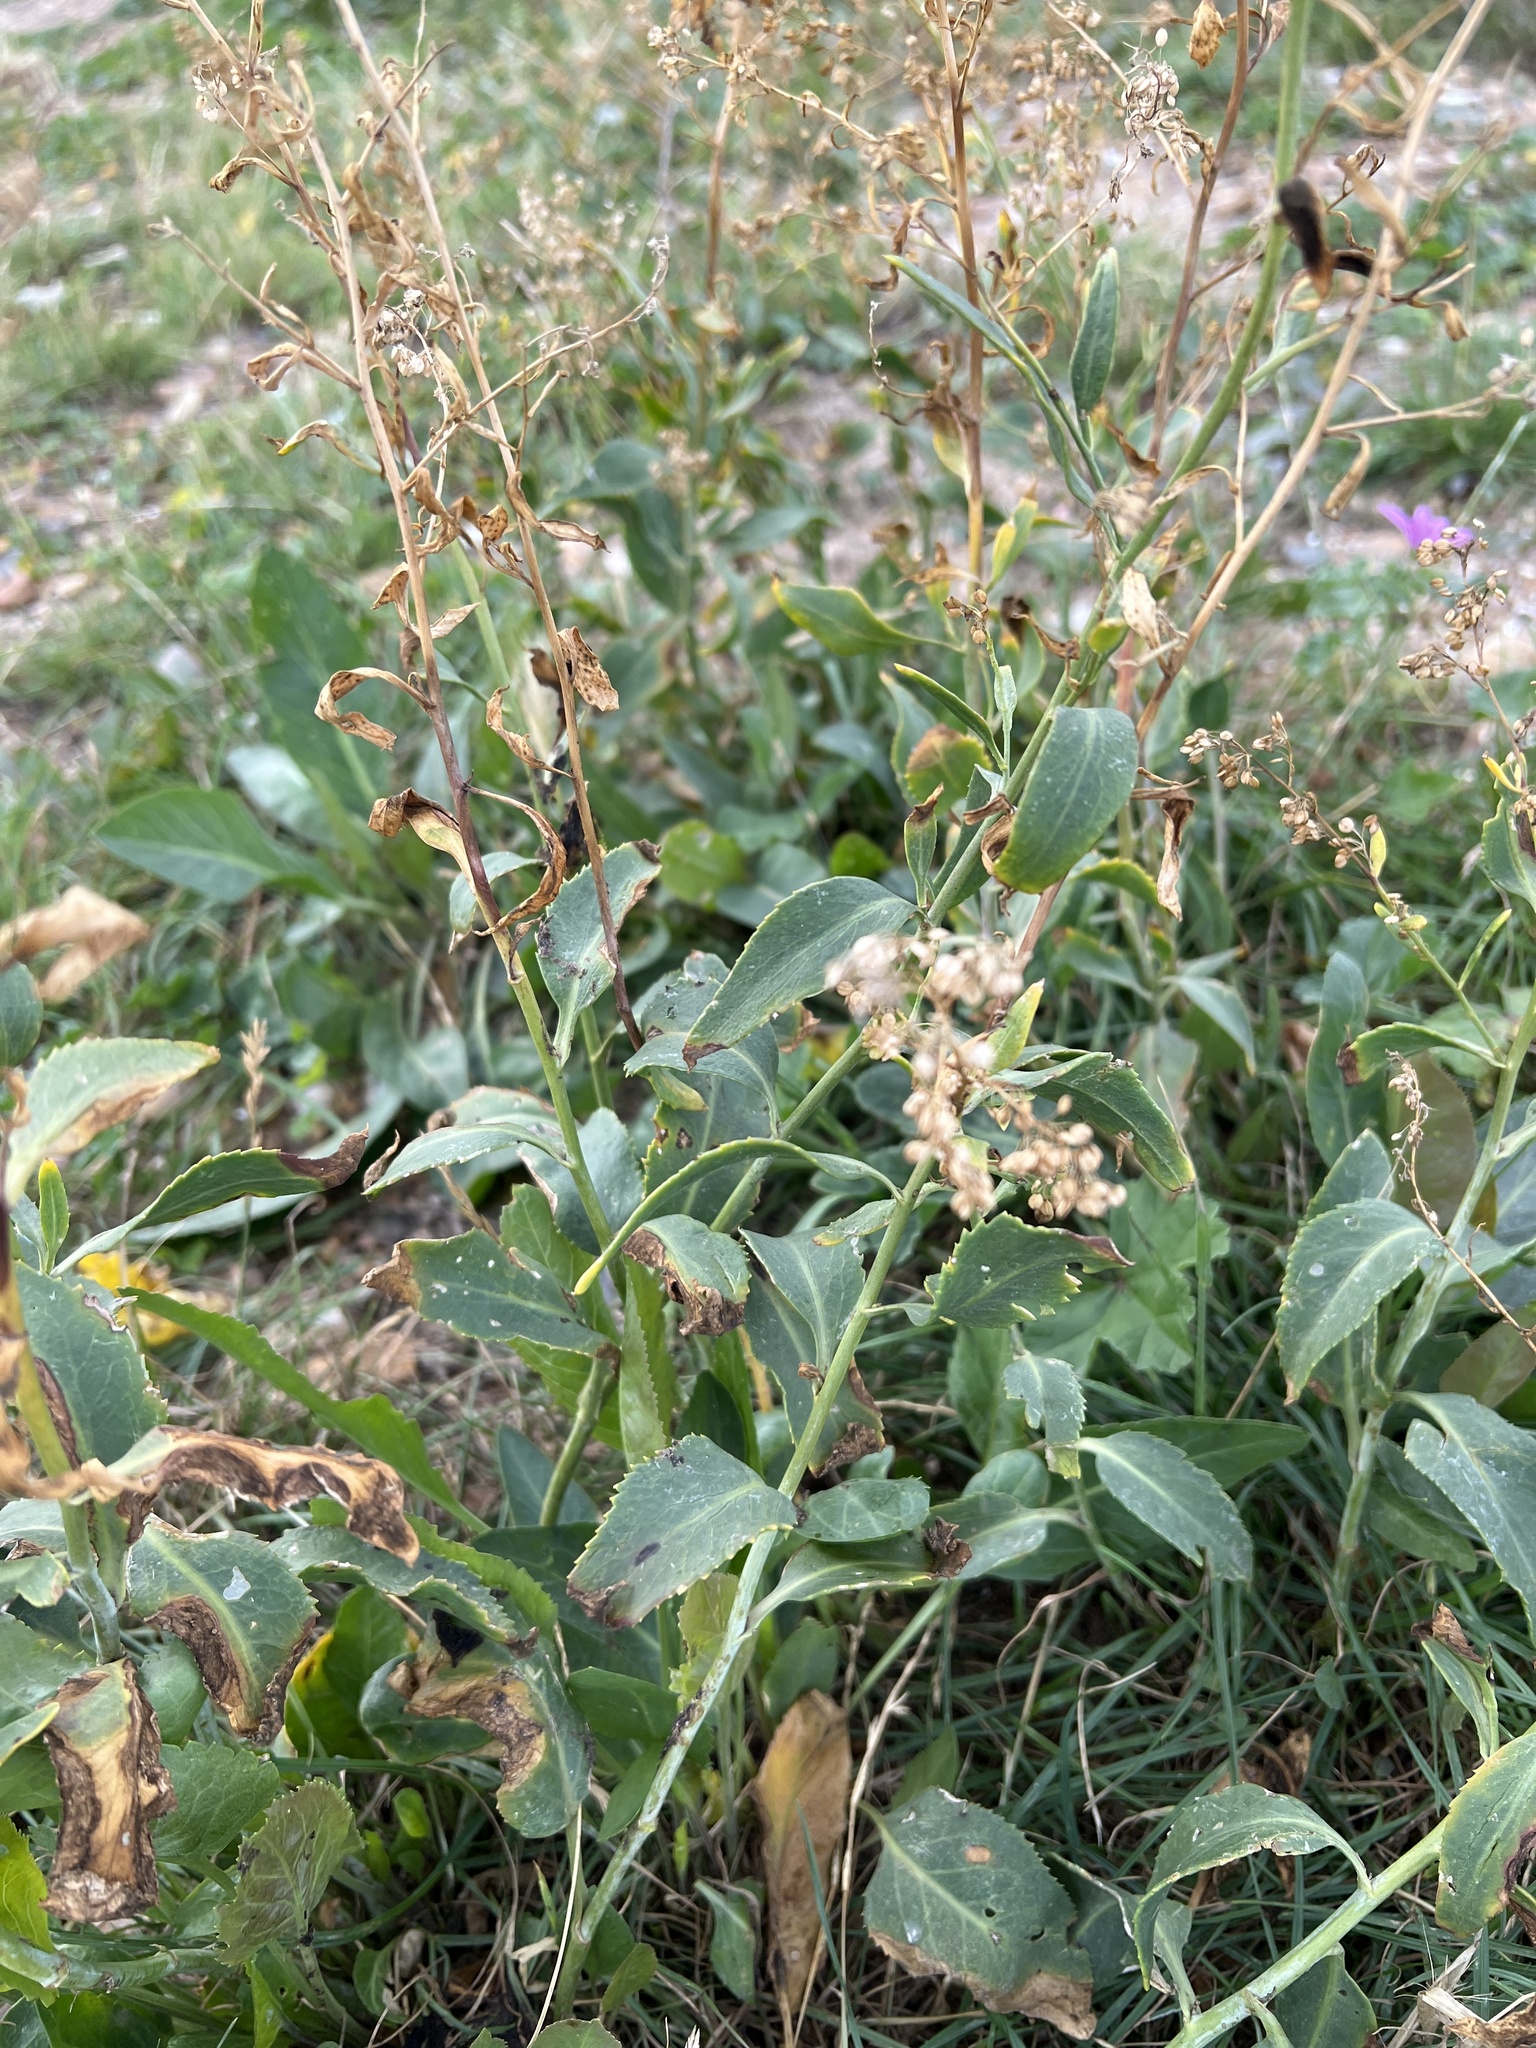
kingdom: Plantae
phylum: Tracheophyta
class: Magnoliopsida
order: Brassicales
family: Brassicaceae
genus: Lepidium
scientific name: Lepidium latifolium
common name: Dittander
